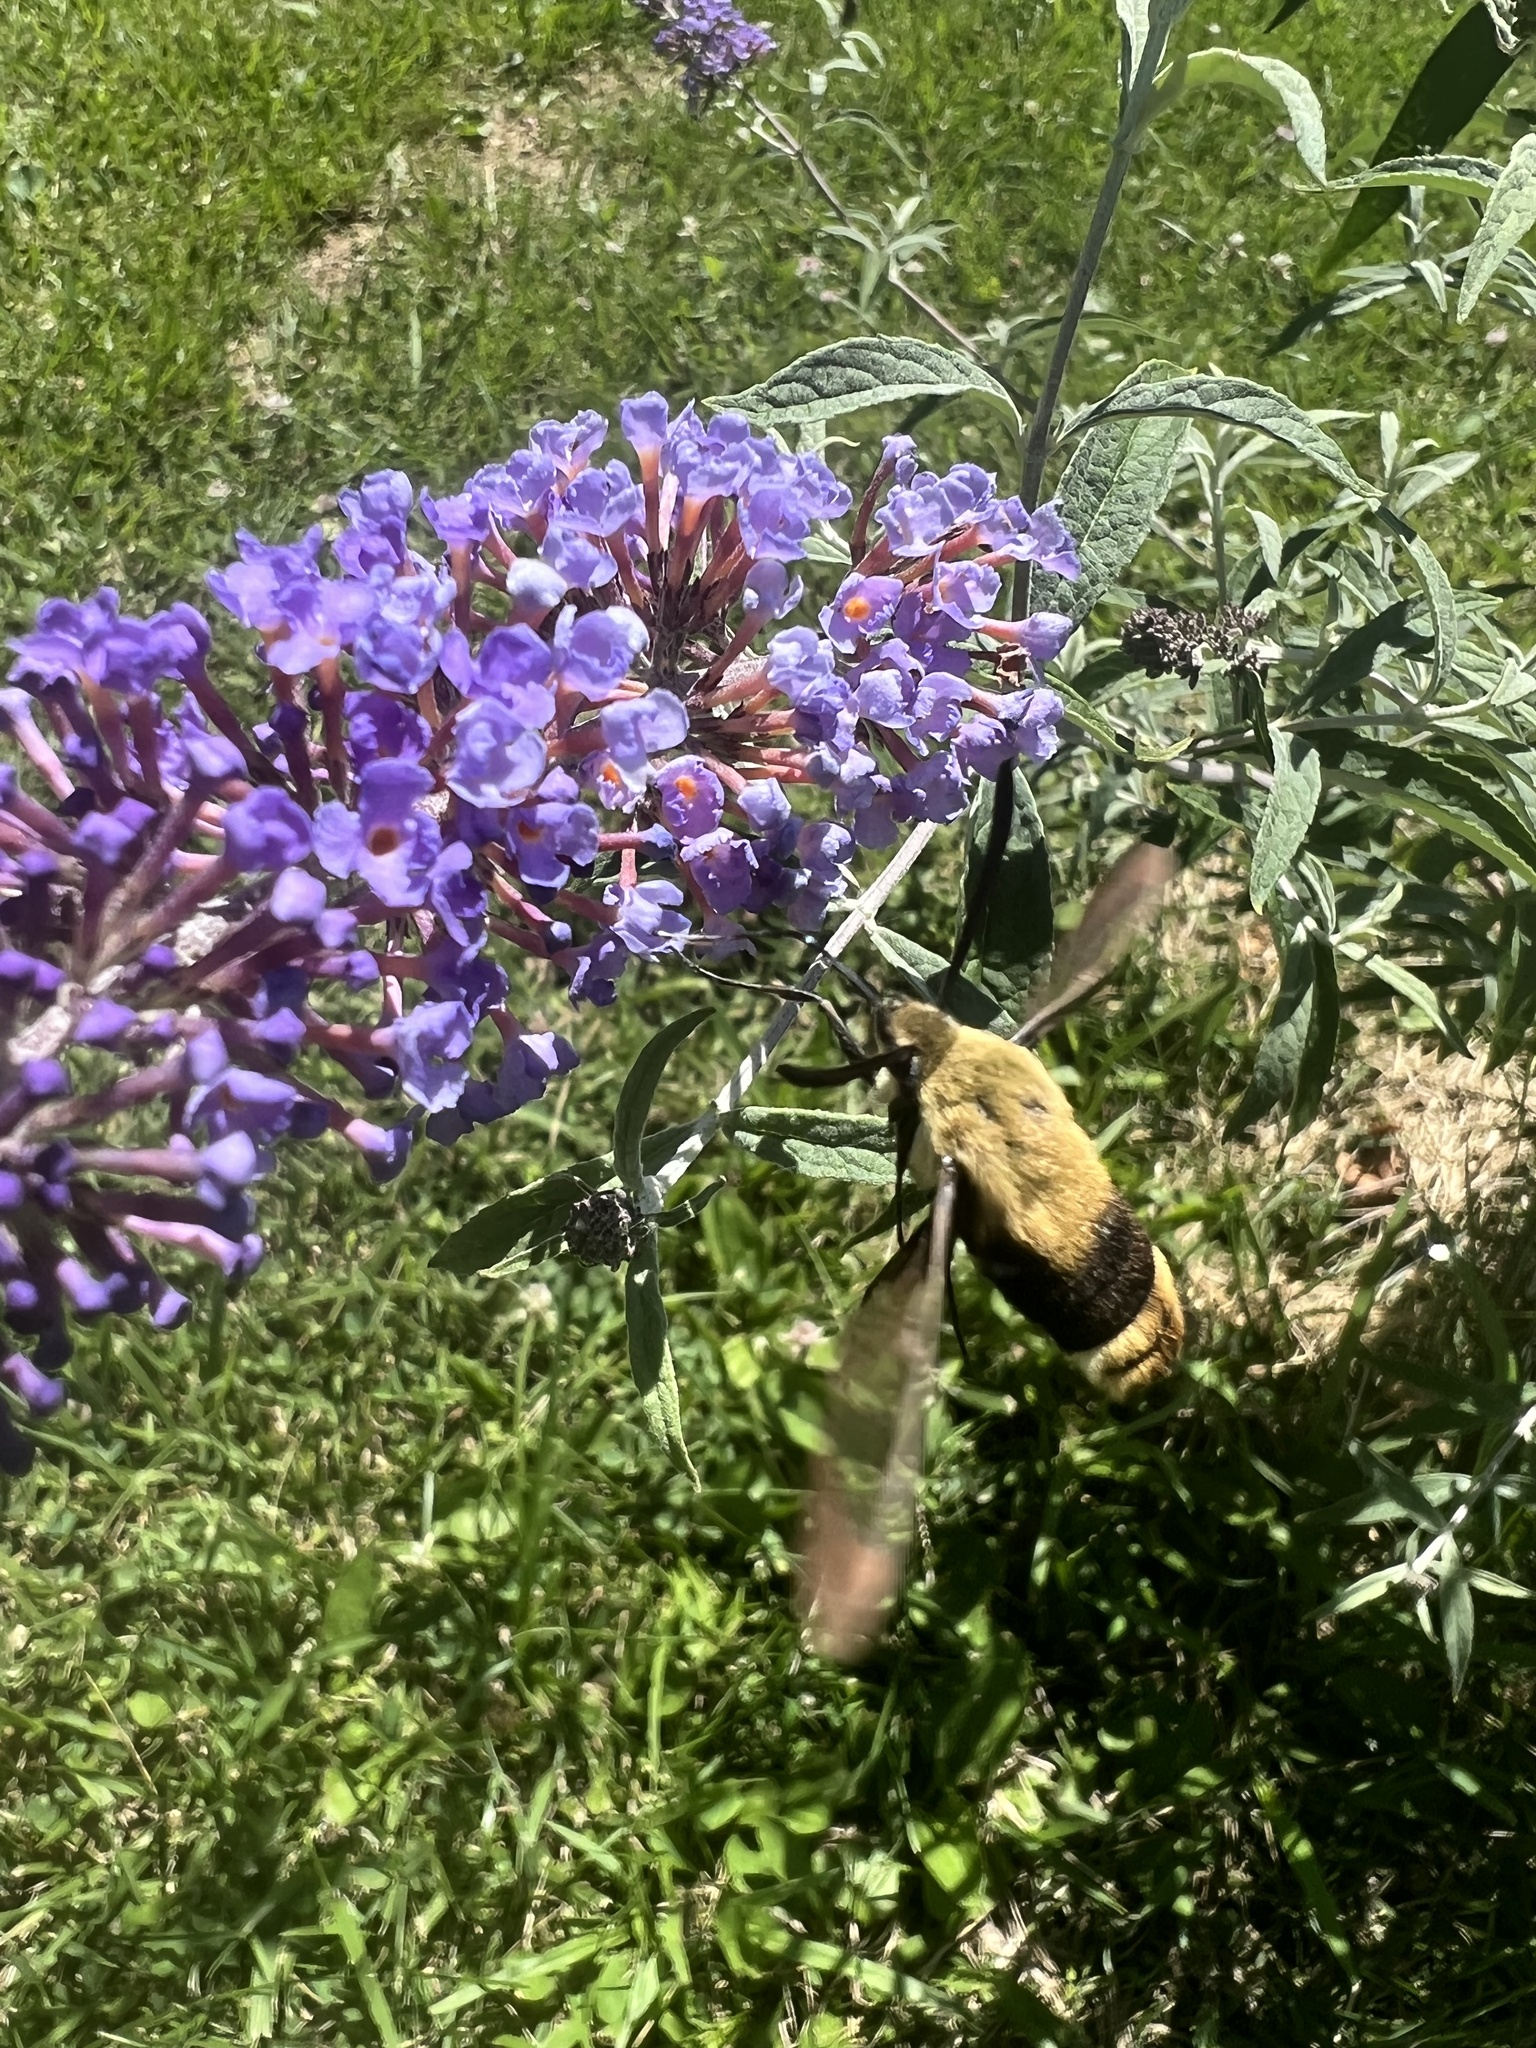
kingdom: Animalia
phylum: Arthropoda
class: Insecta
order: Lepidoptera
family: Sphingidae
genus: Hemaris
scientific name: Hemaris thysbe
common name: Common clear-wing
